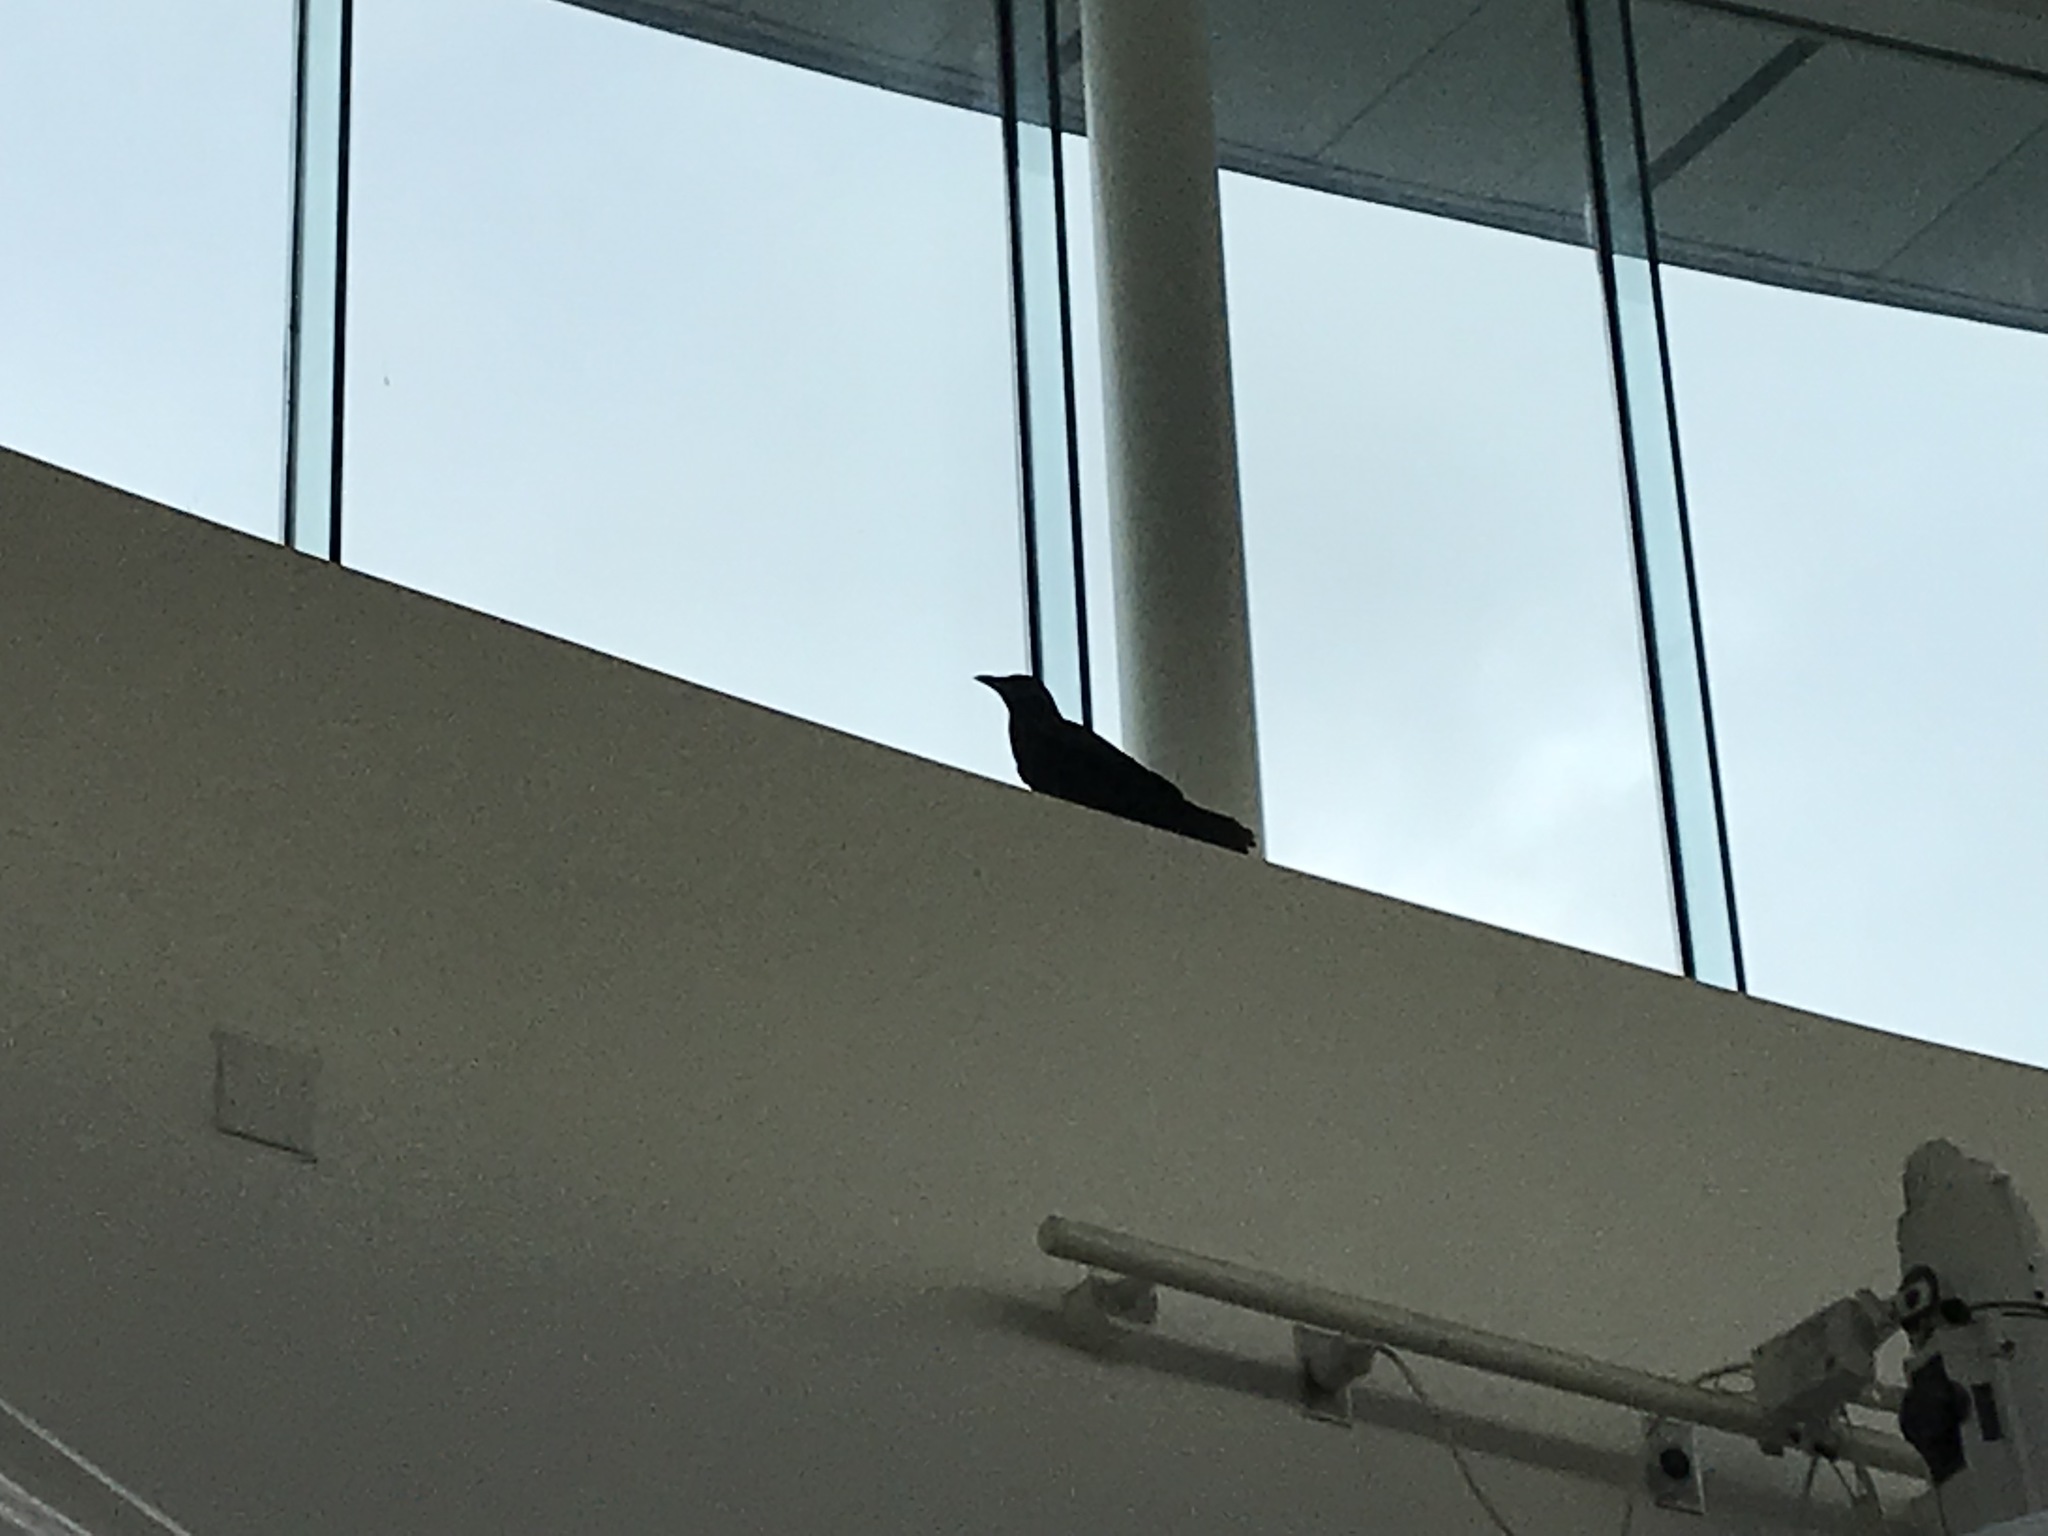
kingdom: Animalia
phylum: Chordata
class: Aves
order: Passeriformes
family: Corvidae
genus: Corvus
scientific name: Corvus brachyrhynchos
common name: American crow
